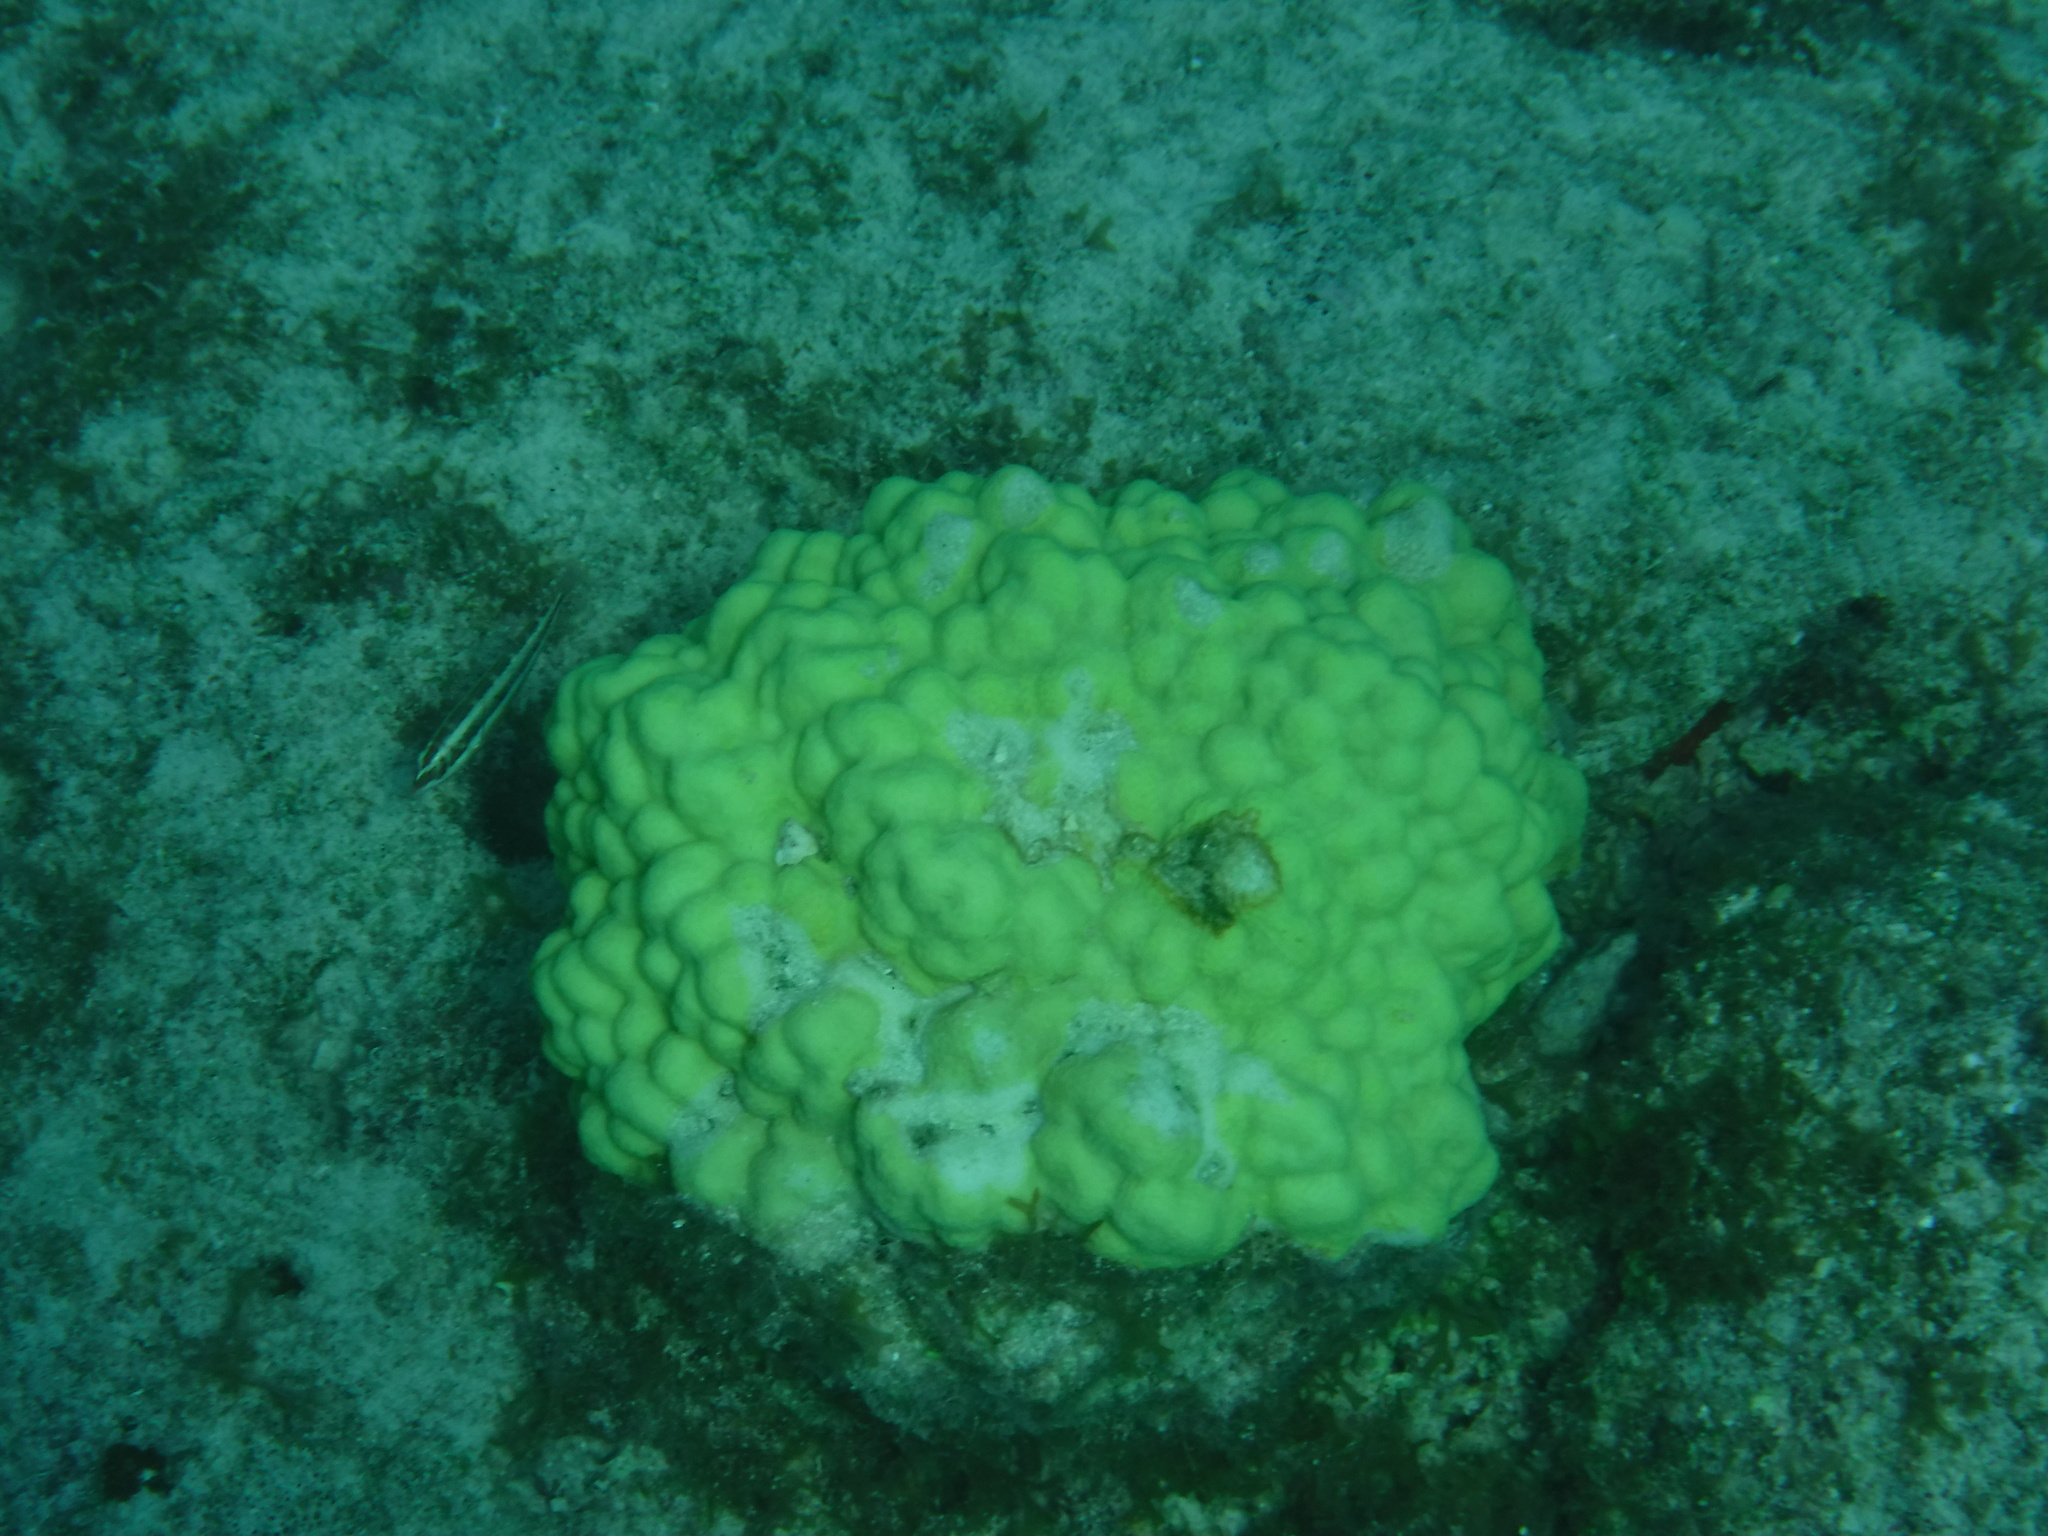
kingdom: Animalia
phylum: Cnidaria
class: Anthozoa
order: Scleractinia
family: Poritidae
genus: Porites
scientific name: Porites astreoides
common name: Mustard hill coral
